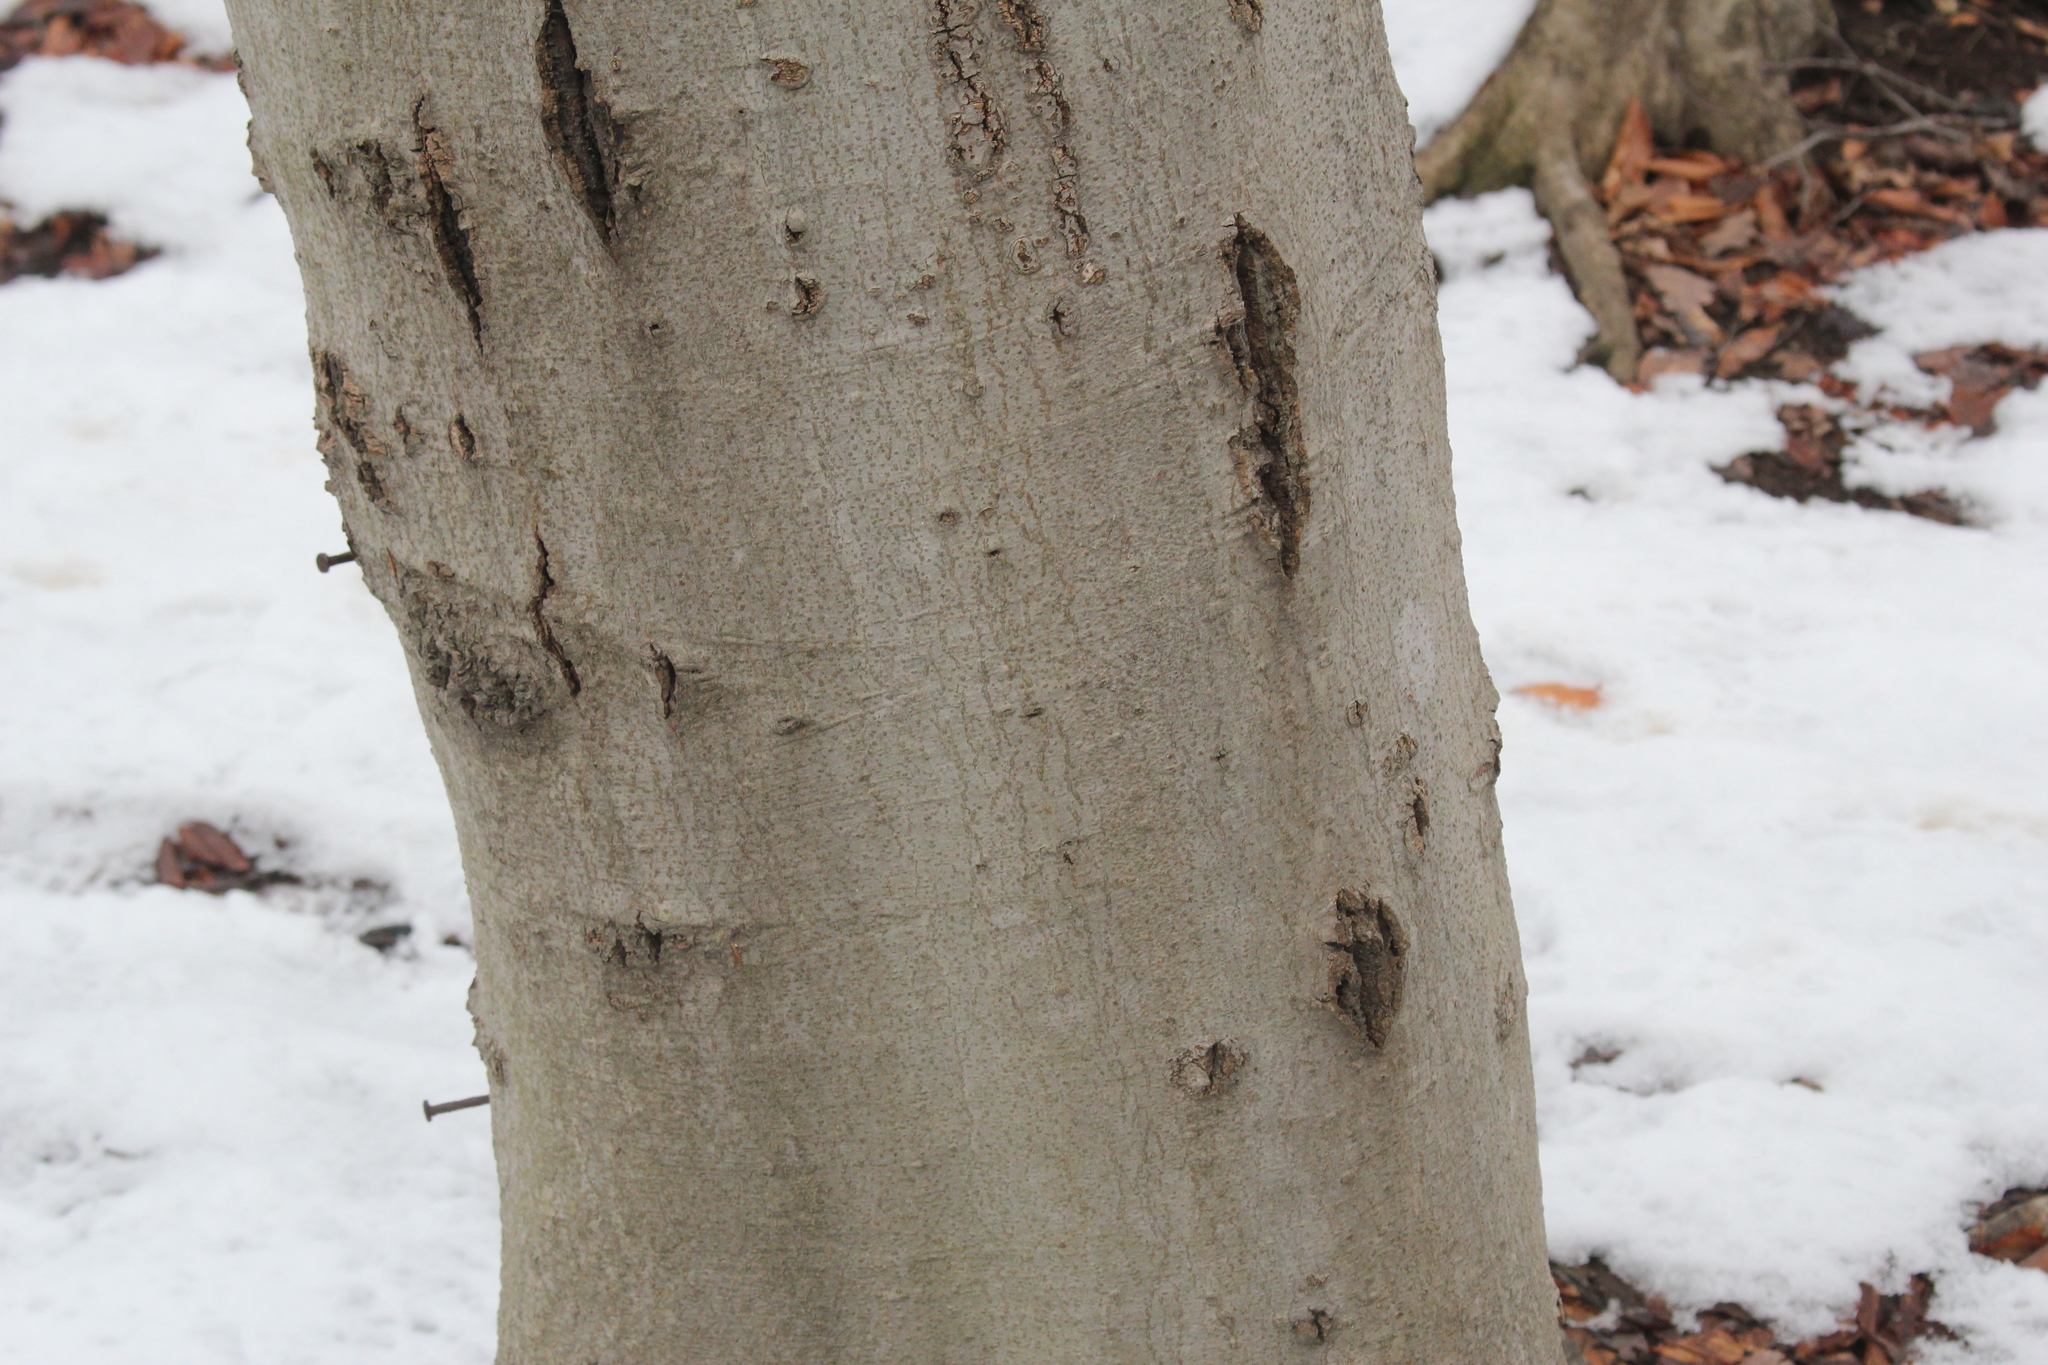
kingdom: Plantae
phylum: Tracheophyta
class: Magnoliopsida
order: Fagales
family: Fagaceae
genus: Fagus
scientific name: Fagus grandifolia
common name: American beech
